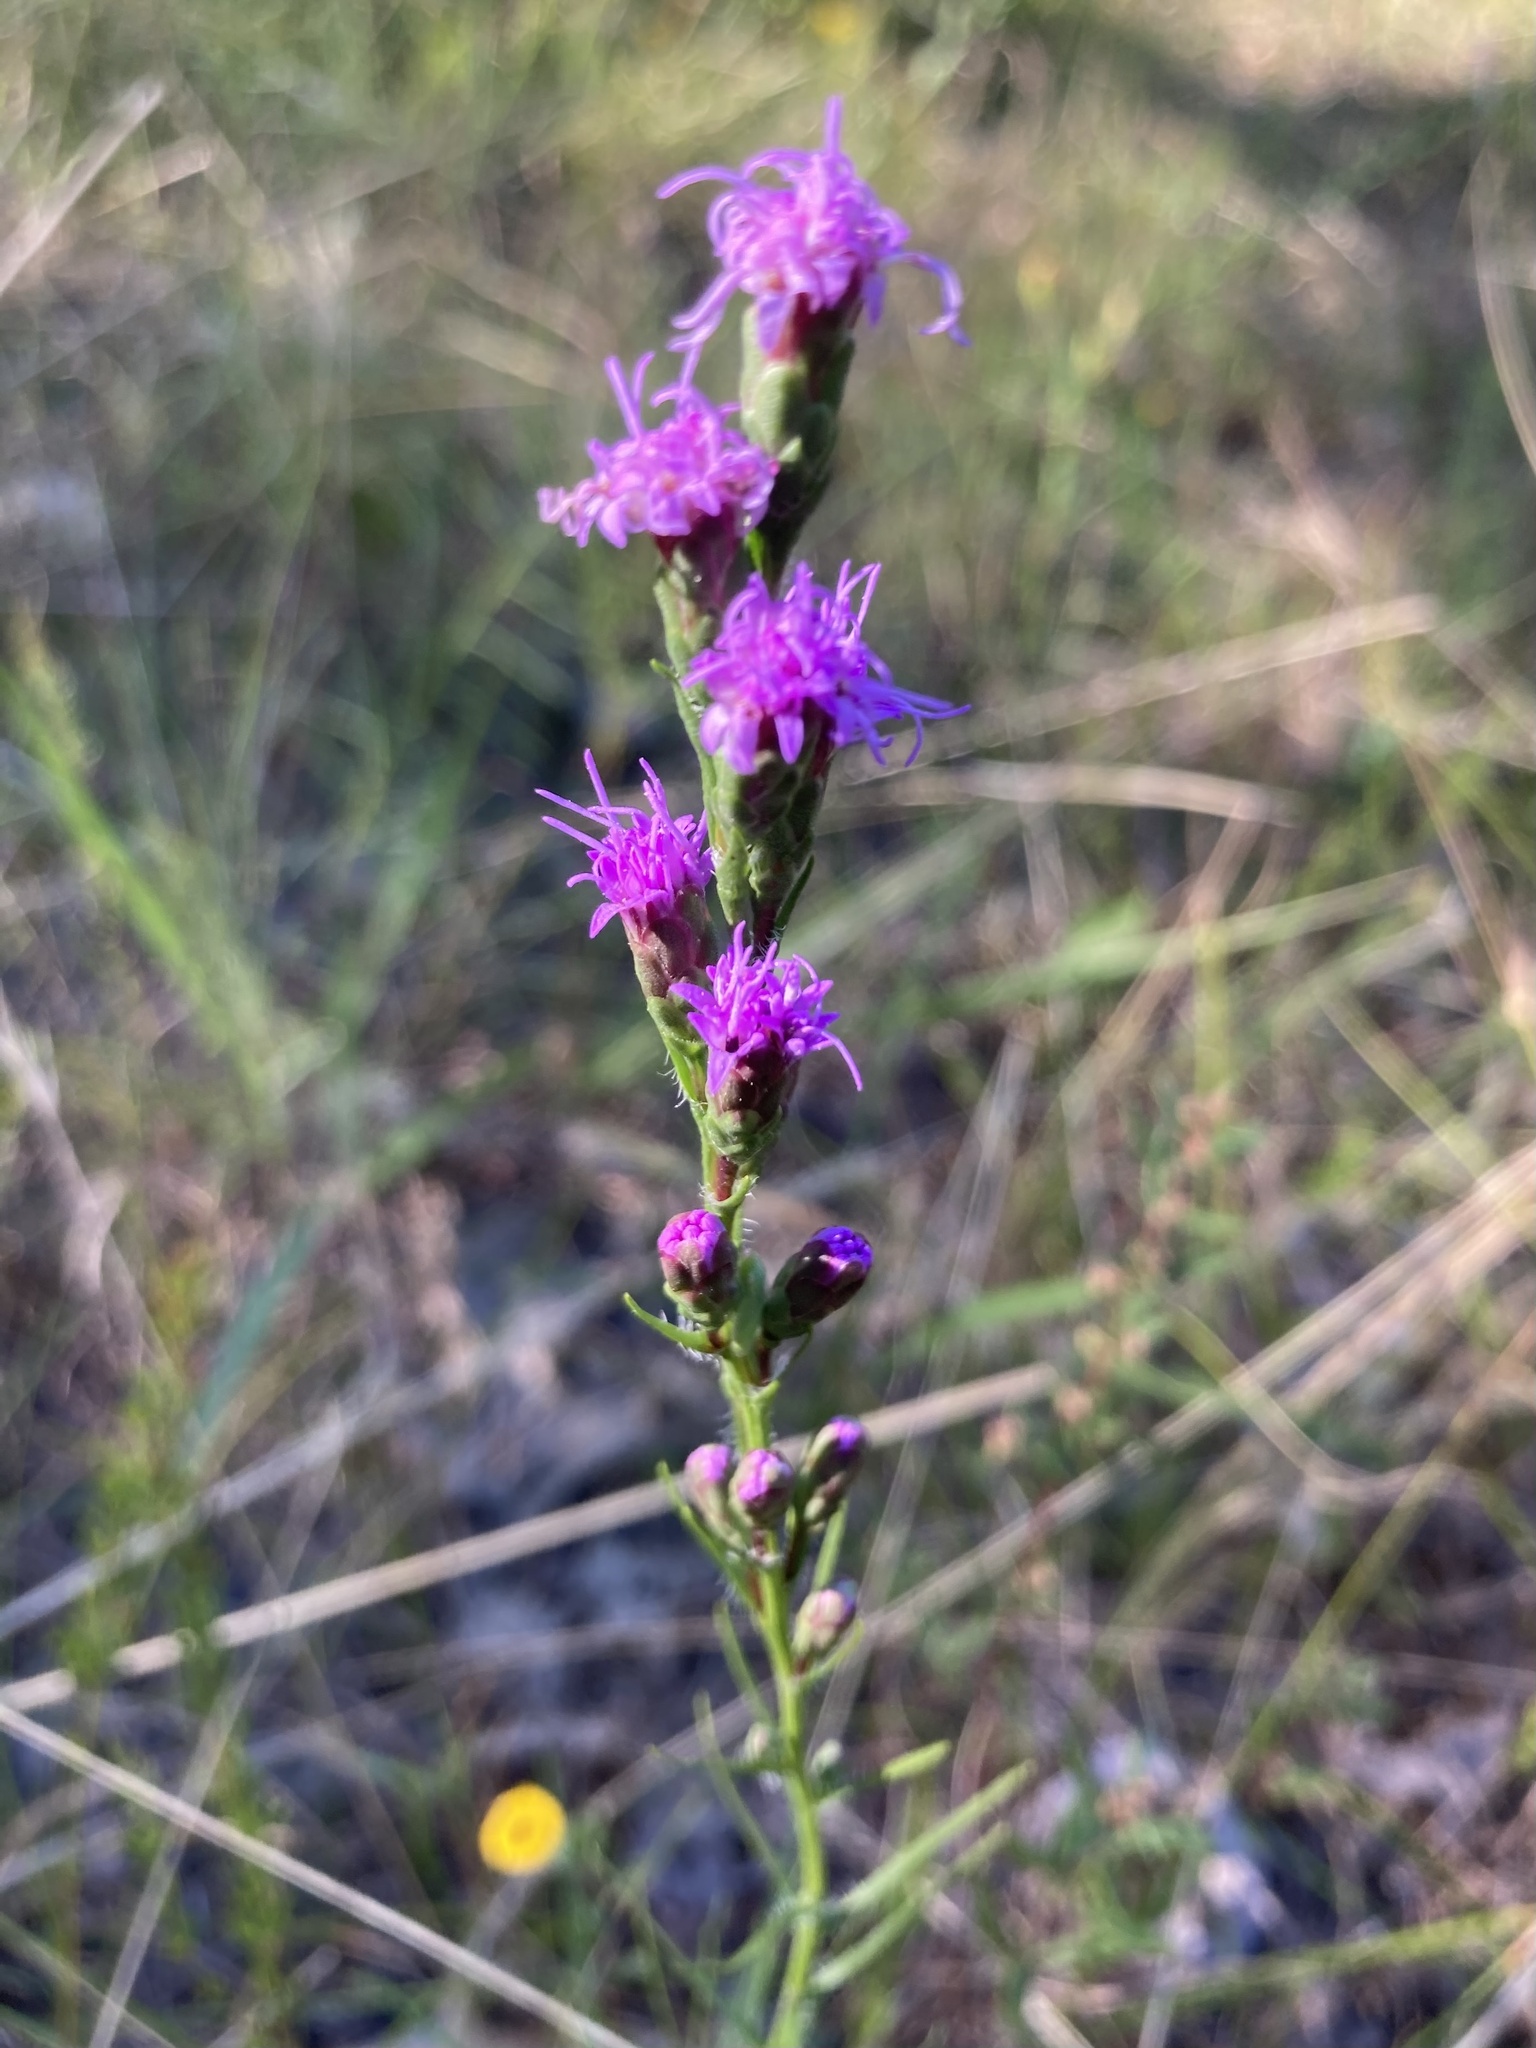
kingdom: Plantae
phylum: Tracheophyta
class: Magnoliopsida
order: Asterales
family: Asteraceae
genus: Liatris
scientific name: Liatris pilosa
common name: Grass-leaf gayfeather
